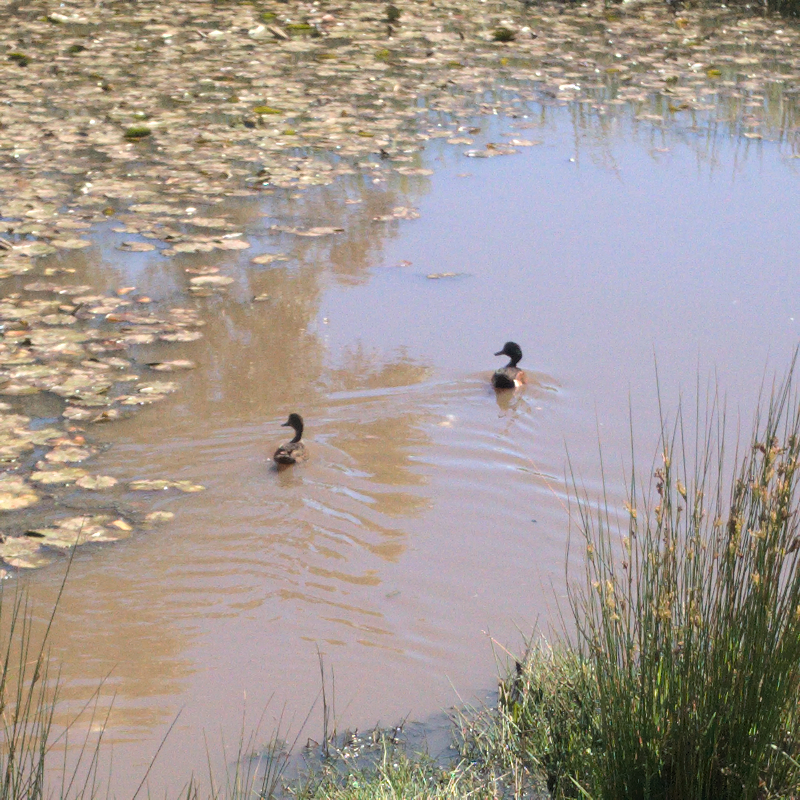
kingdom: Animalia
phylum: Chordata
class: Aves
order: Anseriformes
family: Anatidae
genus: Anas
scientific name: Anas castanea
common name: Chestnut teal
